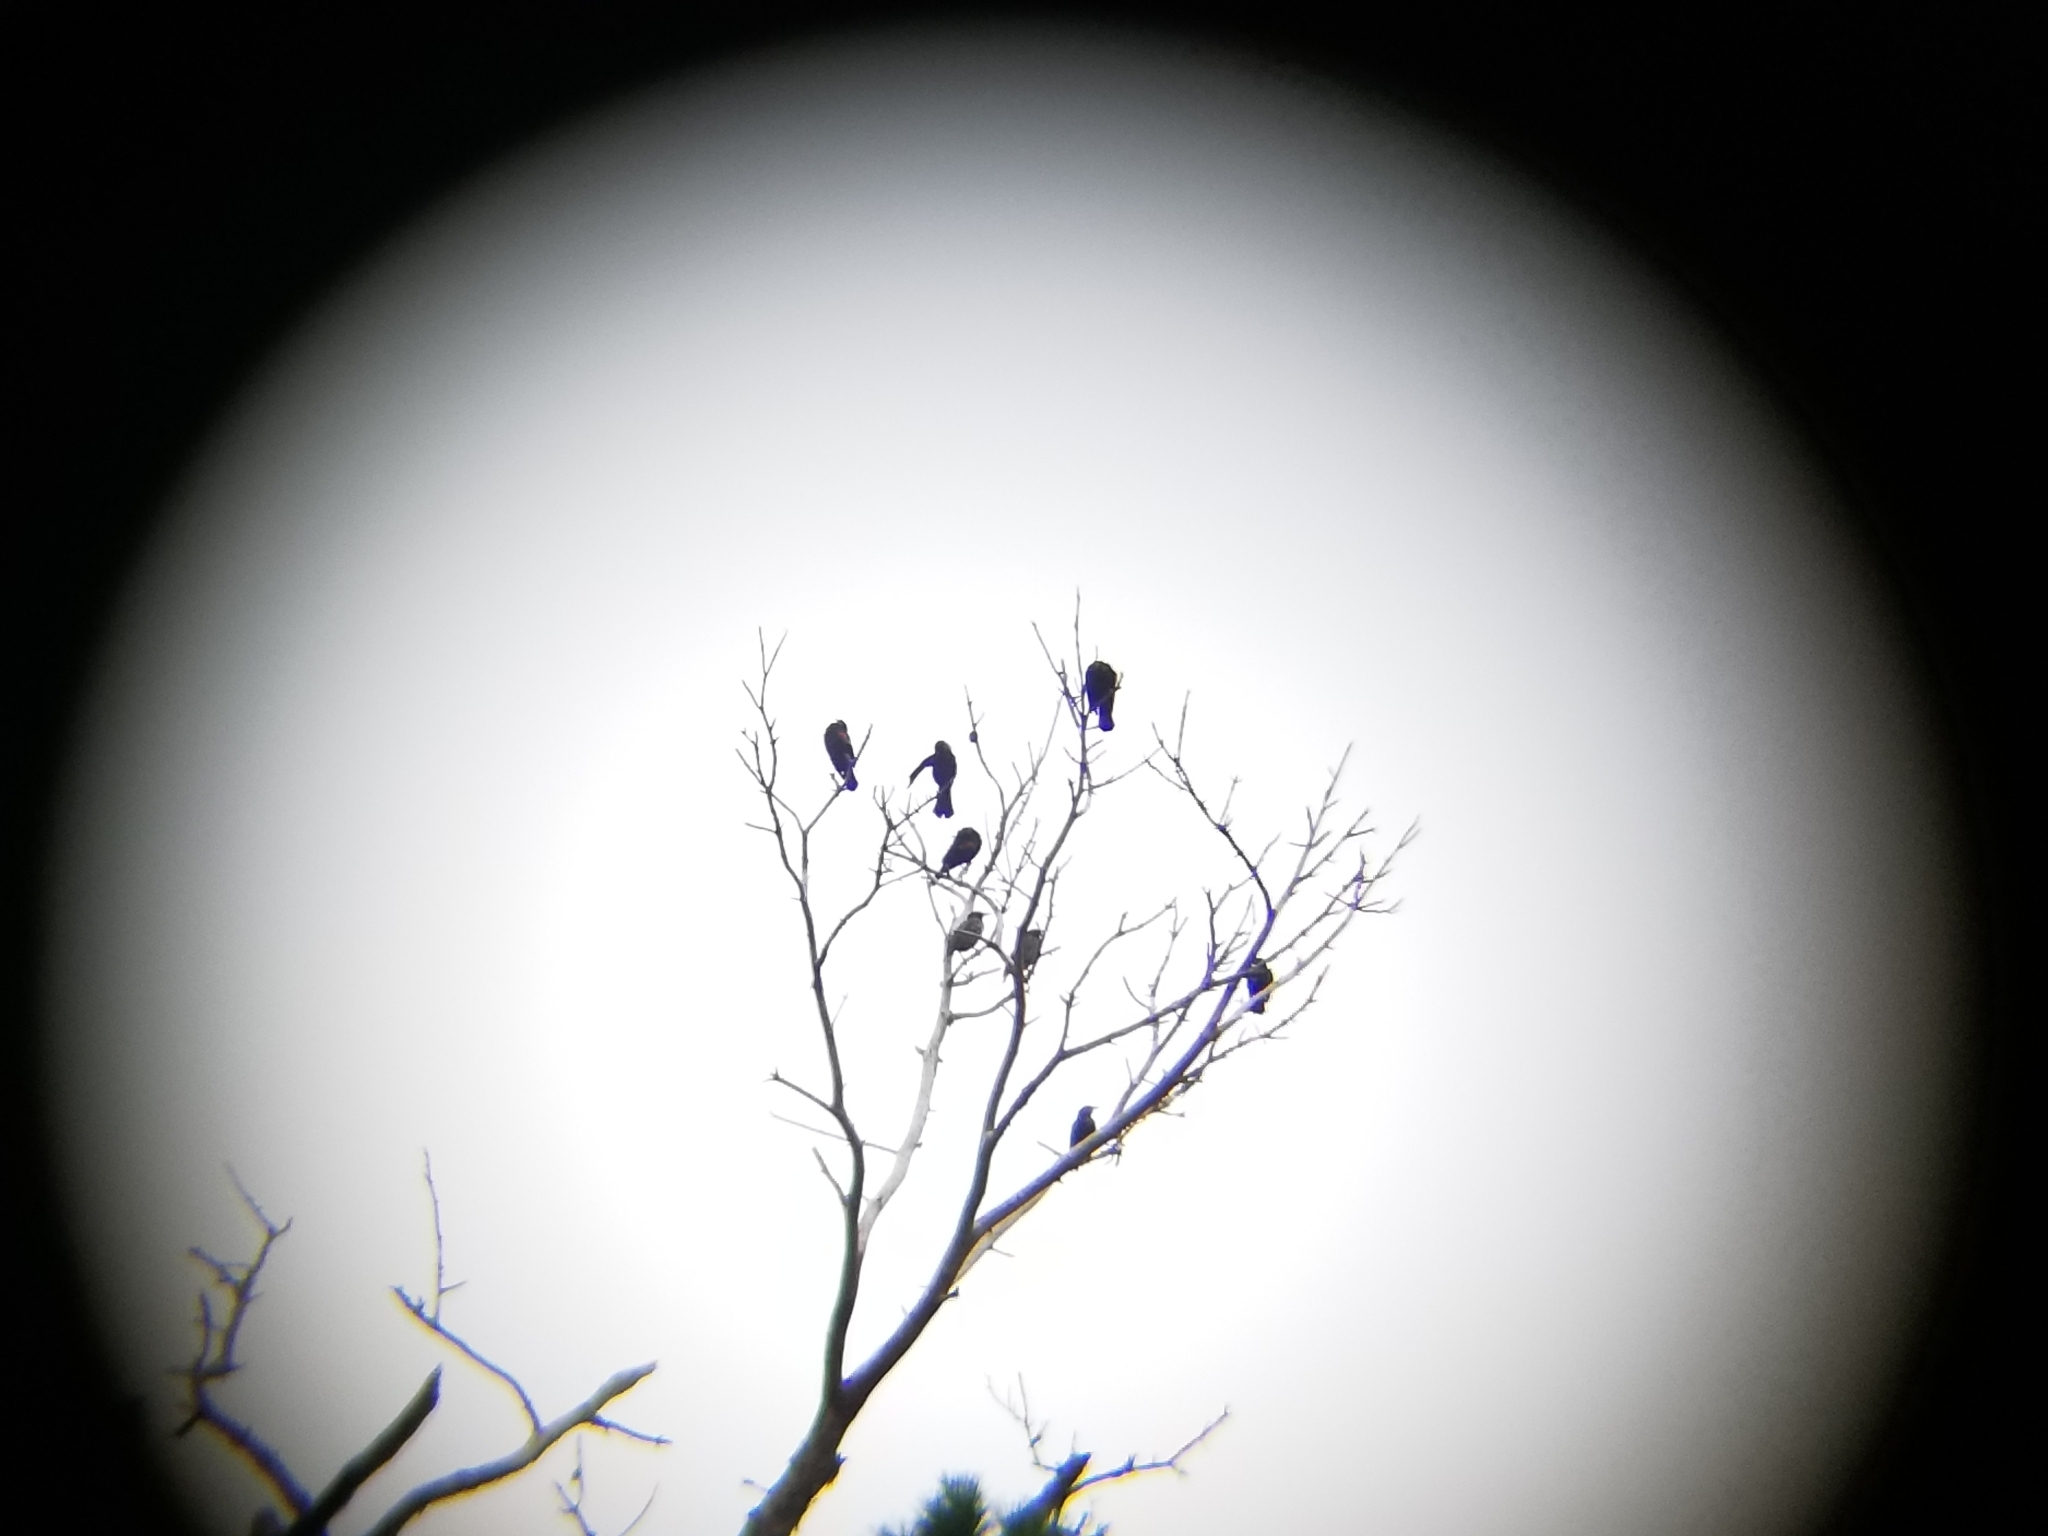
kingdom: Animalia
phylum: Chordata
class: Aves
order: Passeriformes
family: Icteridae
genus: Agelaius
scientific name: Agelaius phoeniceus
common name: Red-winged blackbird
